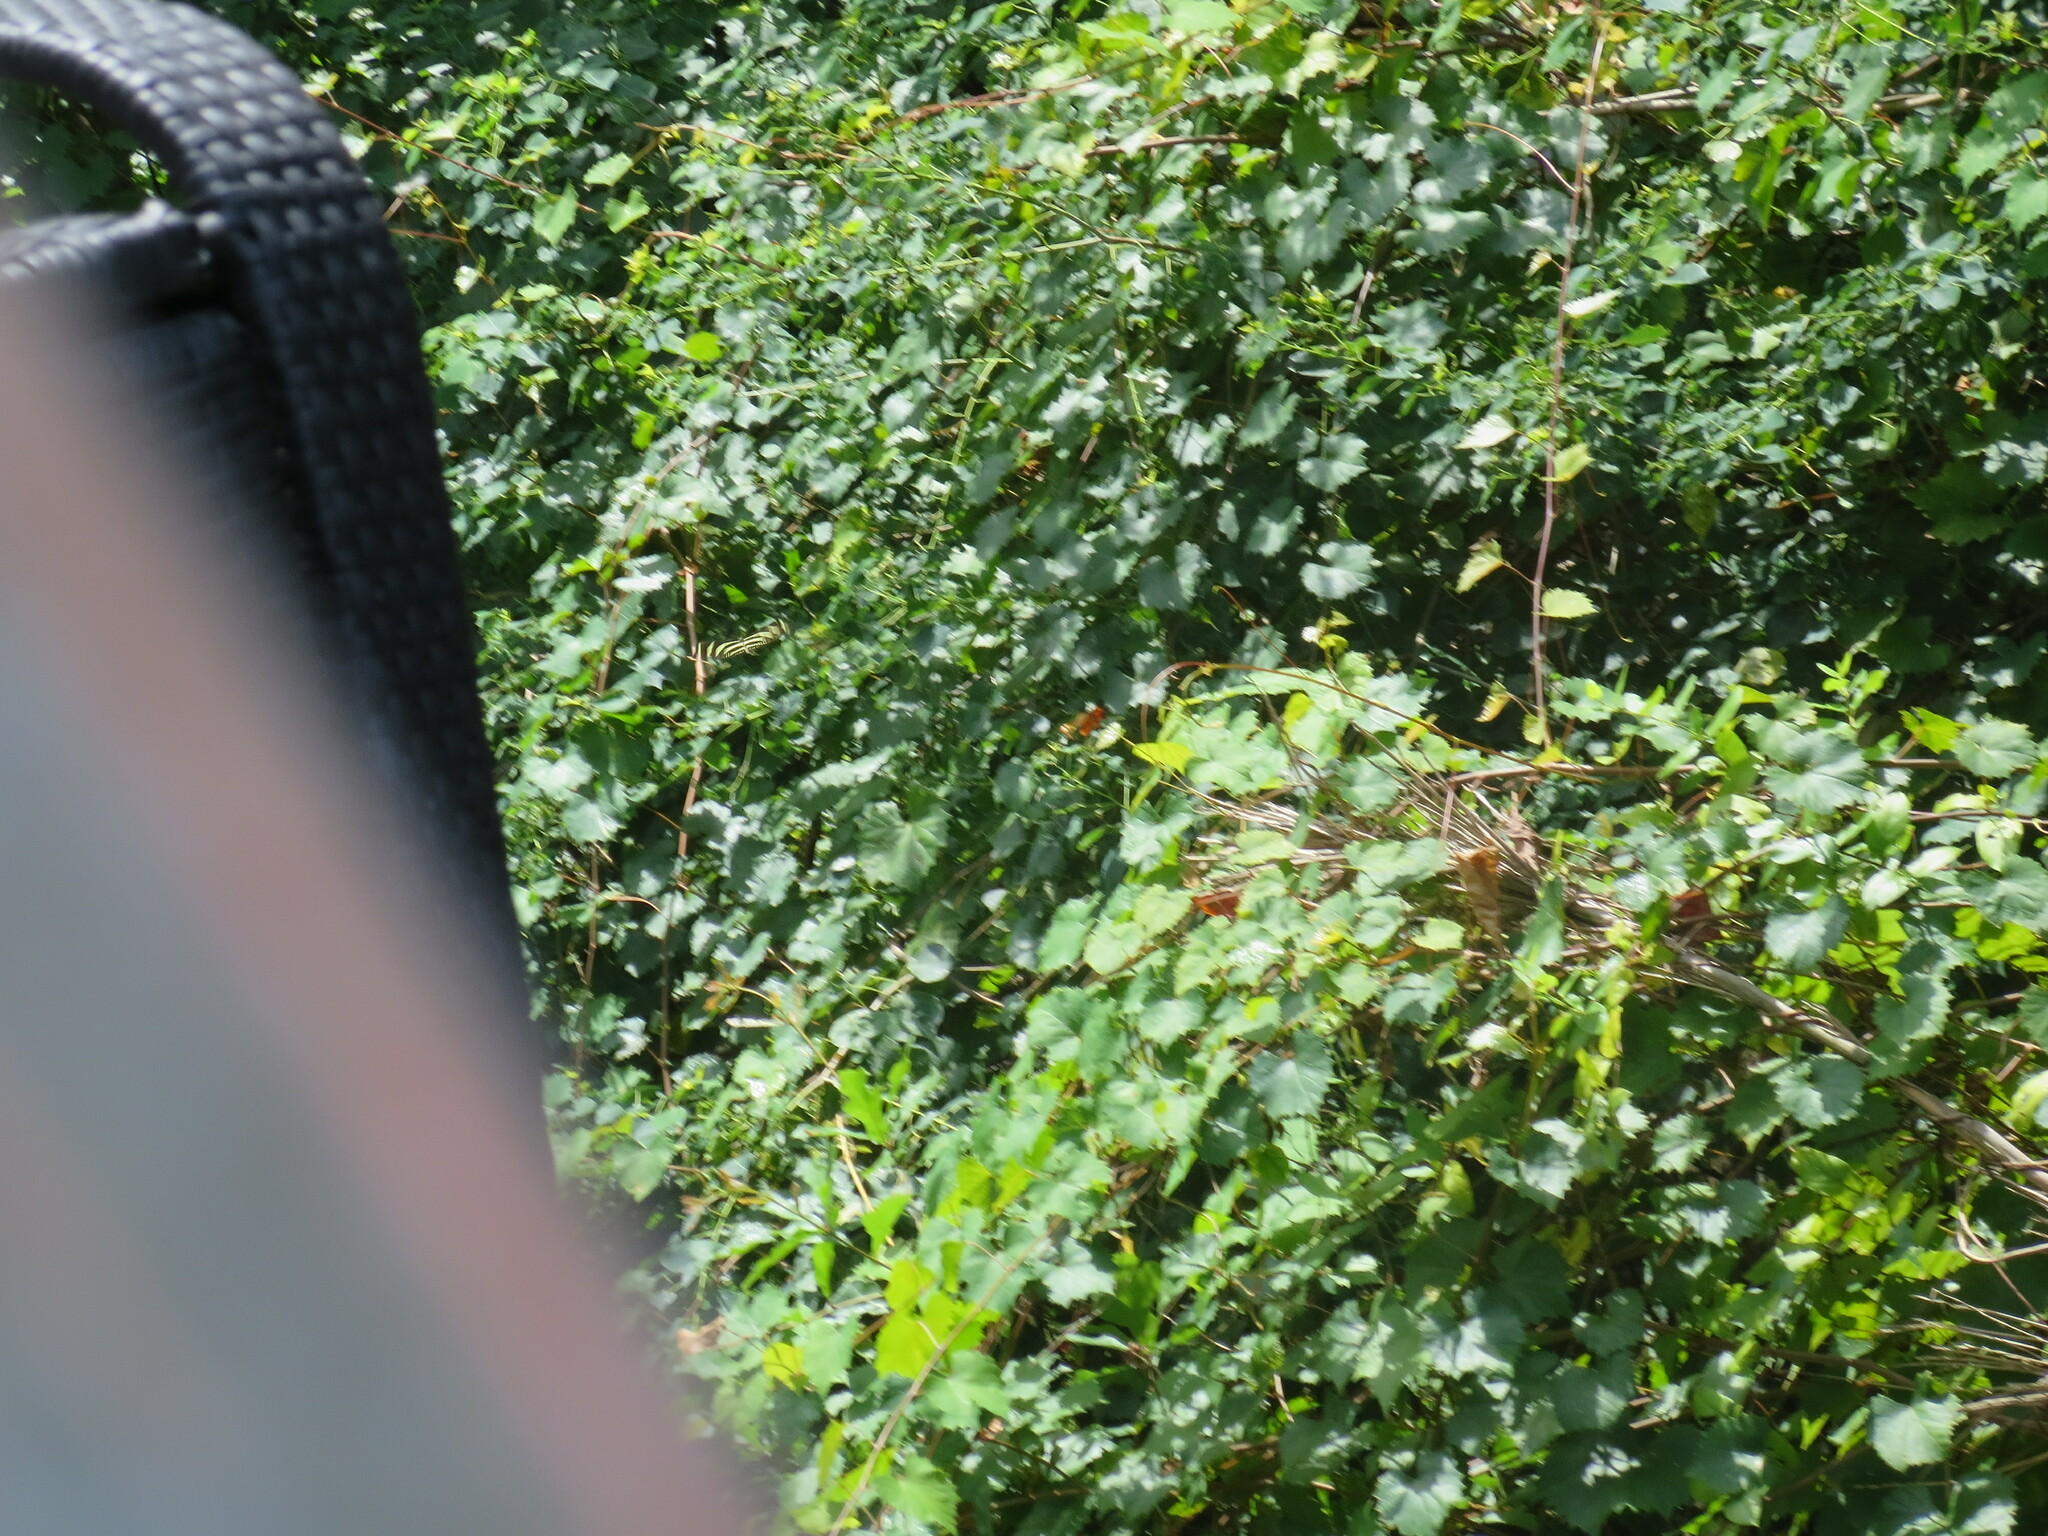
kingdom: Animalia
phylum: Arthropoda
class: Insecta
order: Lepidoptera
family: Nymphalidae
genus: Heliconius
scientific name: Heliconius charithonia
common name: Zebra long wing
